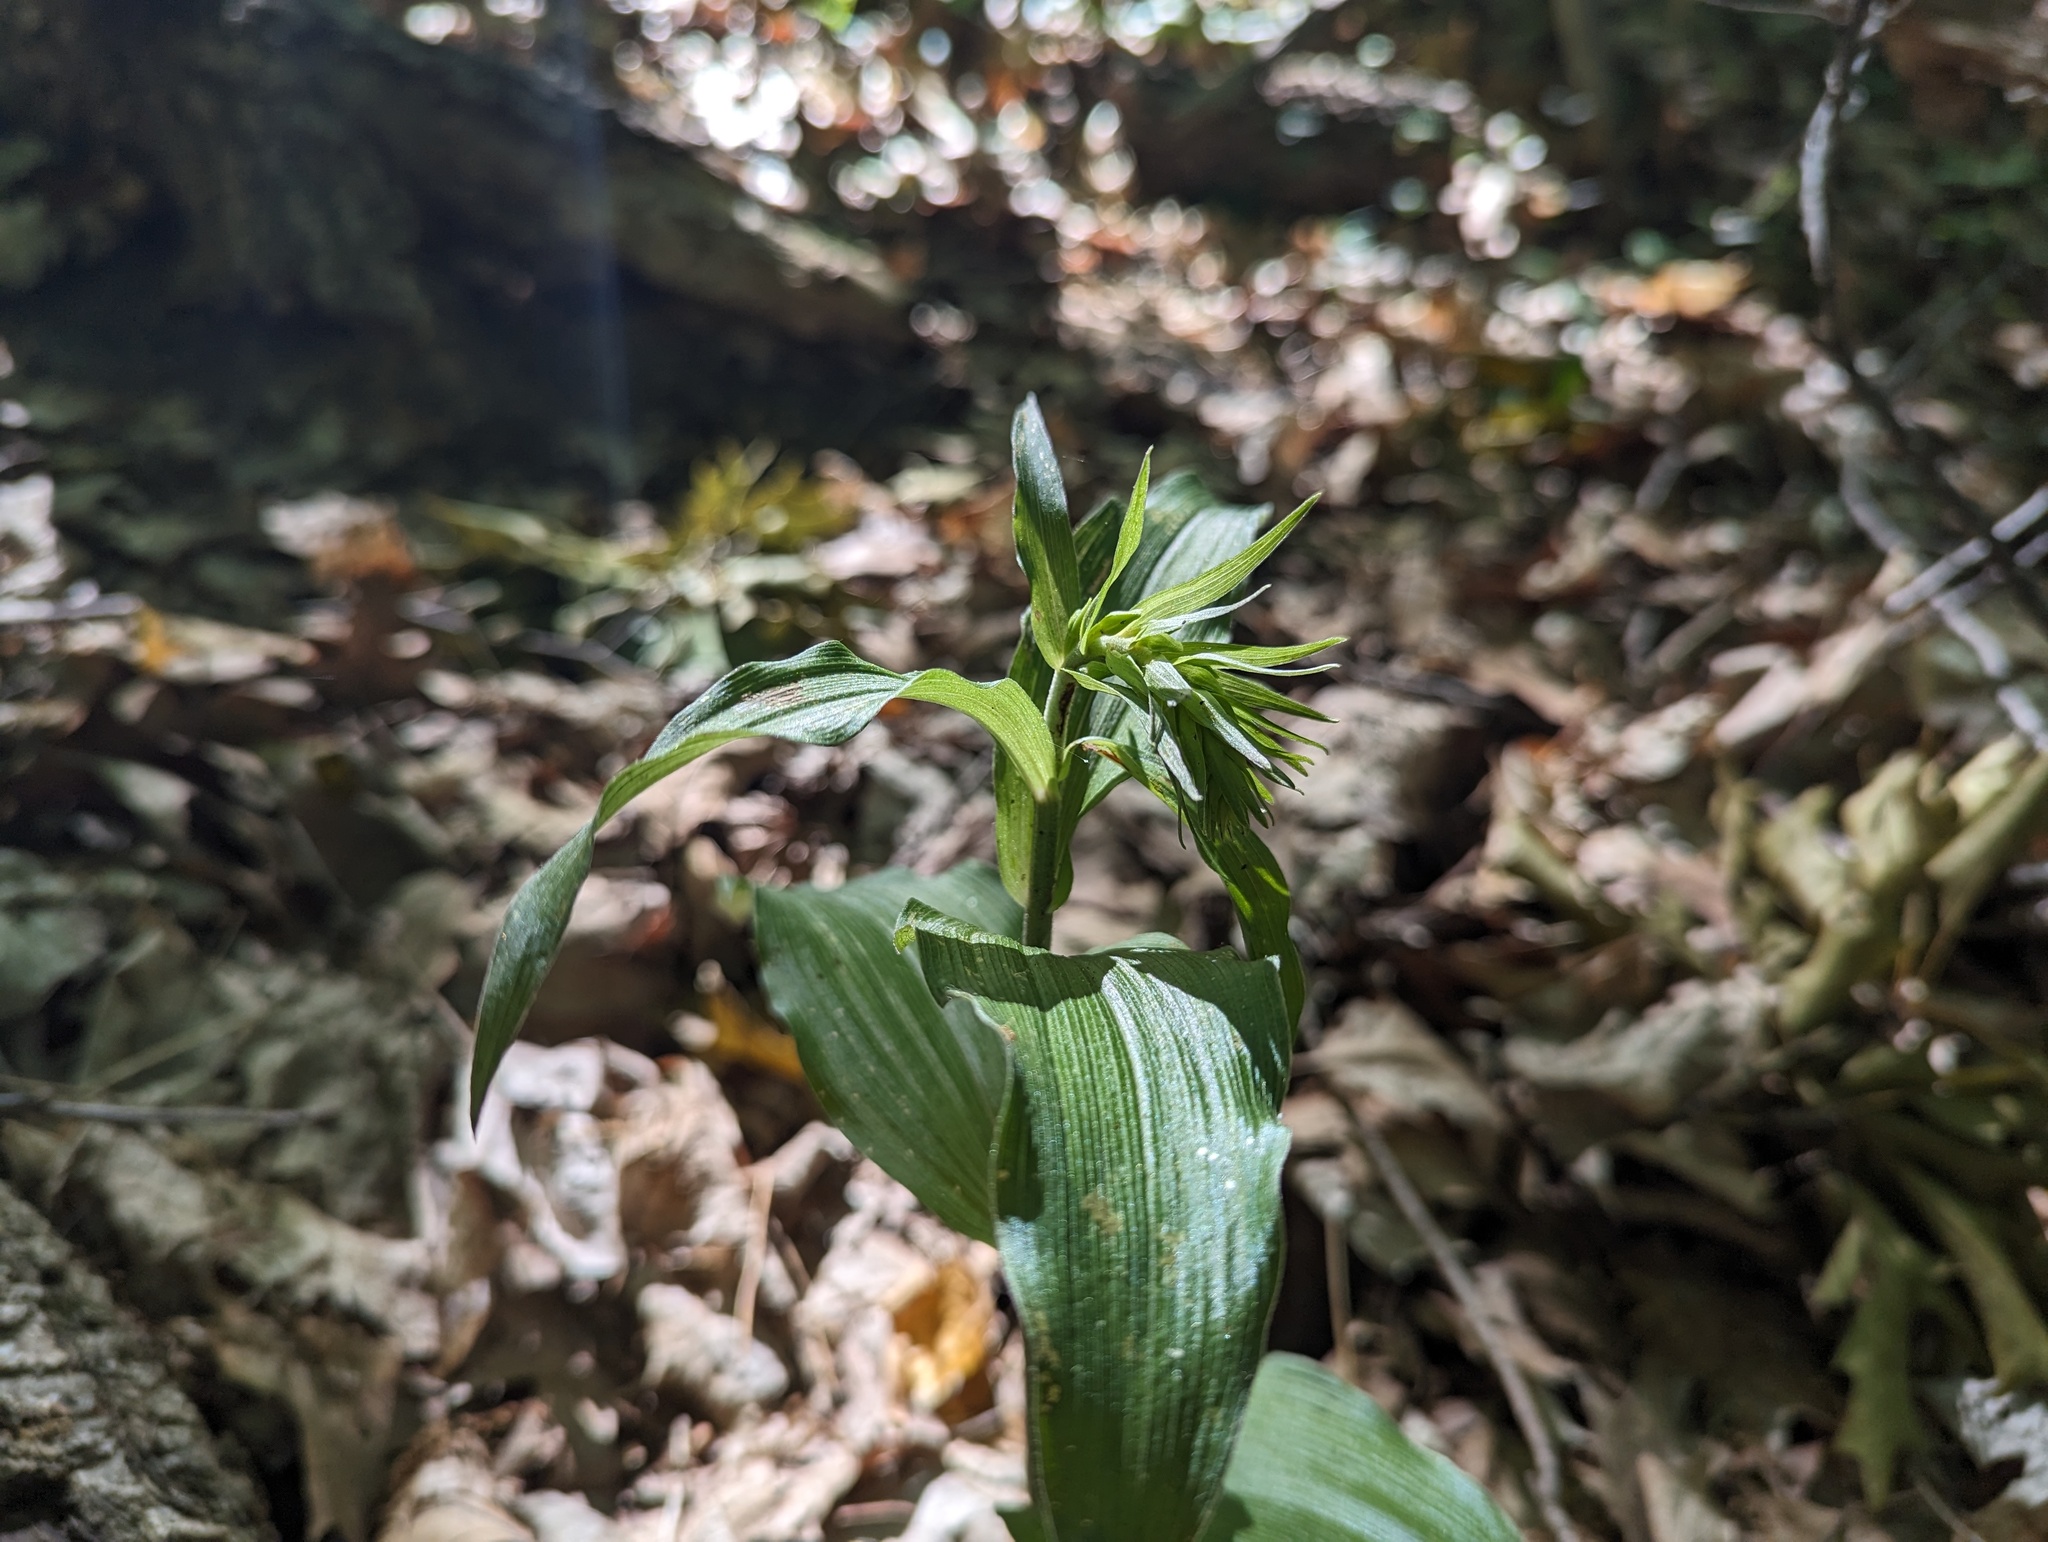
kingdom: Plantae
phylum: Tracheophyta
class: Liliopsida
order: Asparagales
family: Orchidaceae
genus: Epipactis
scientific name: Epipactis helleborine
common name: Broad-leaved helleborine
